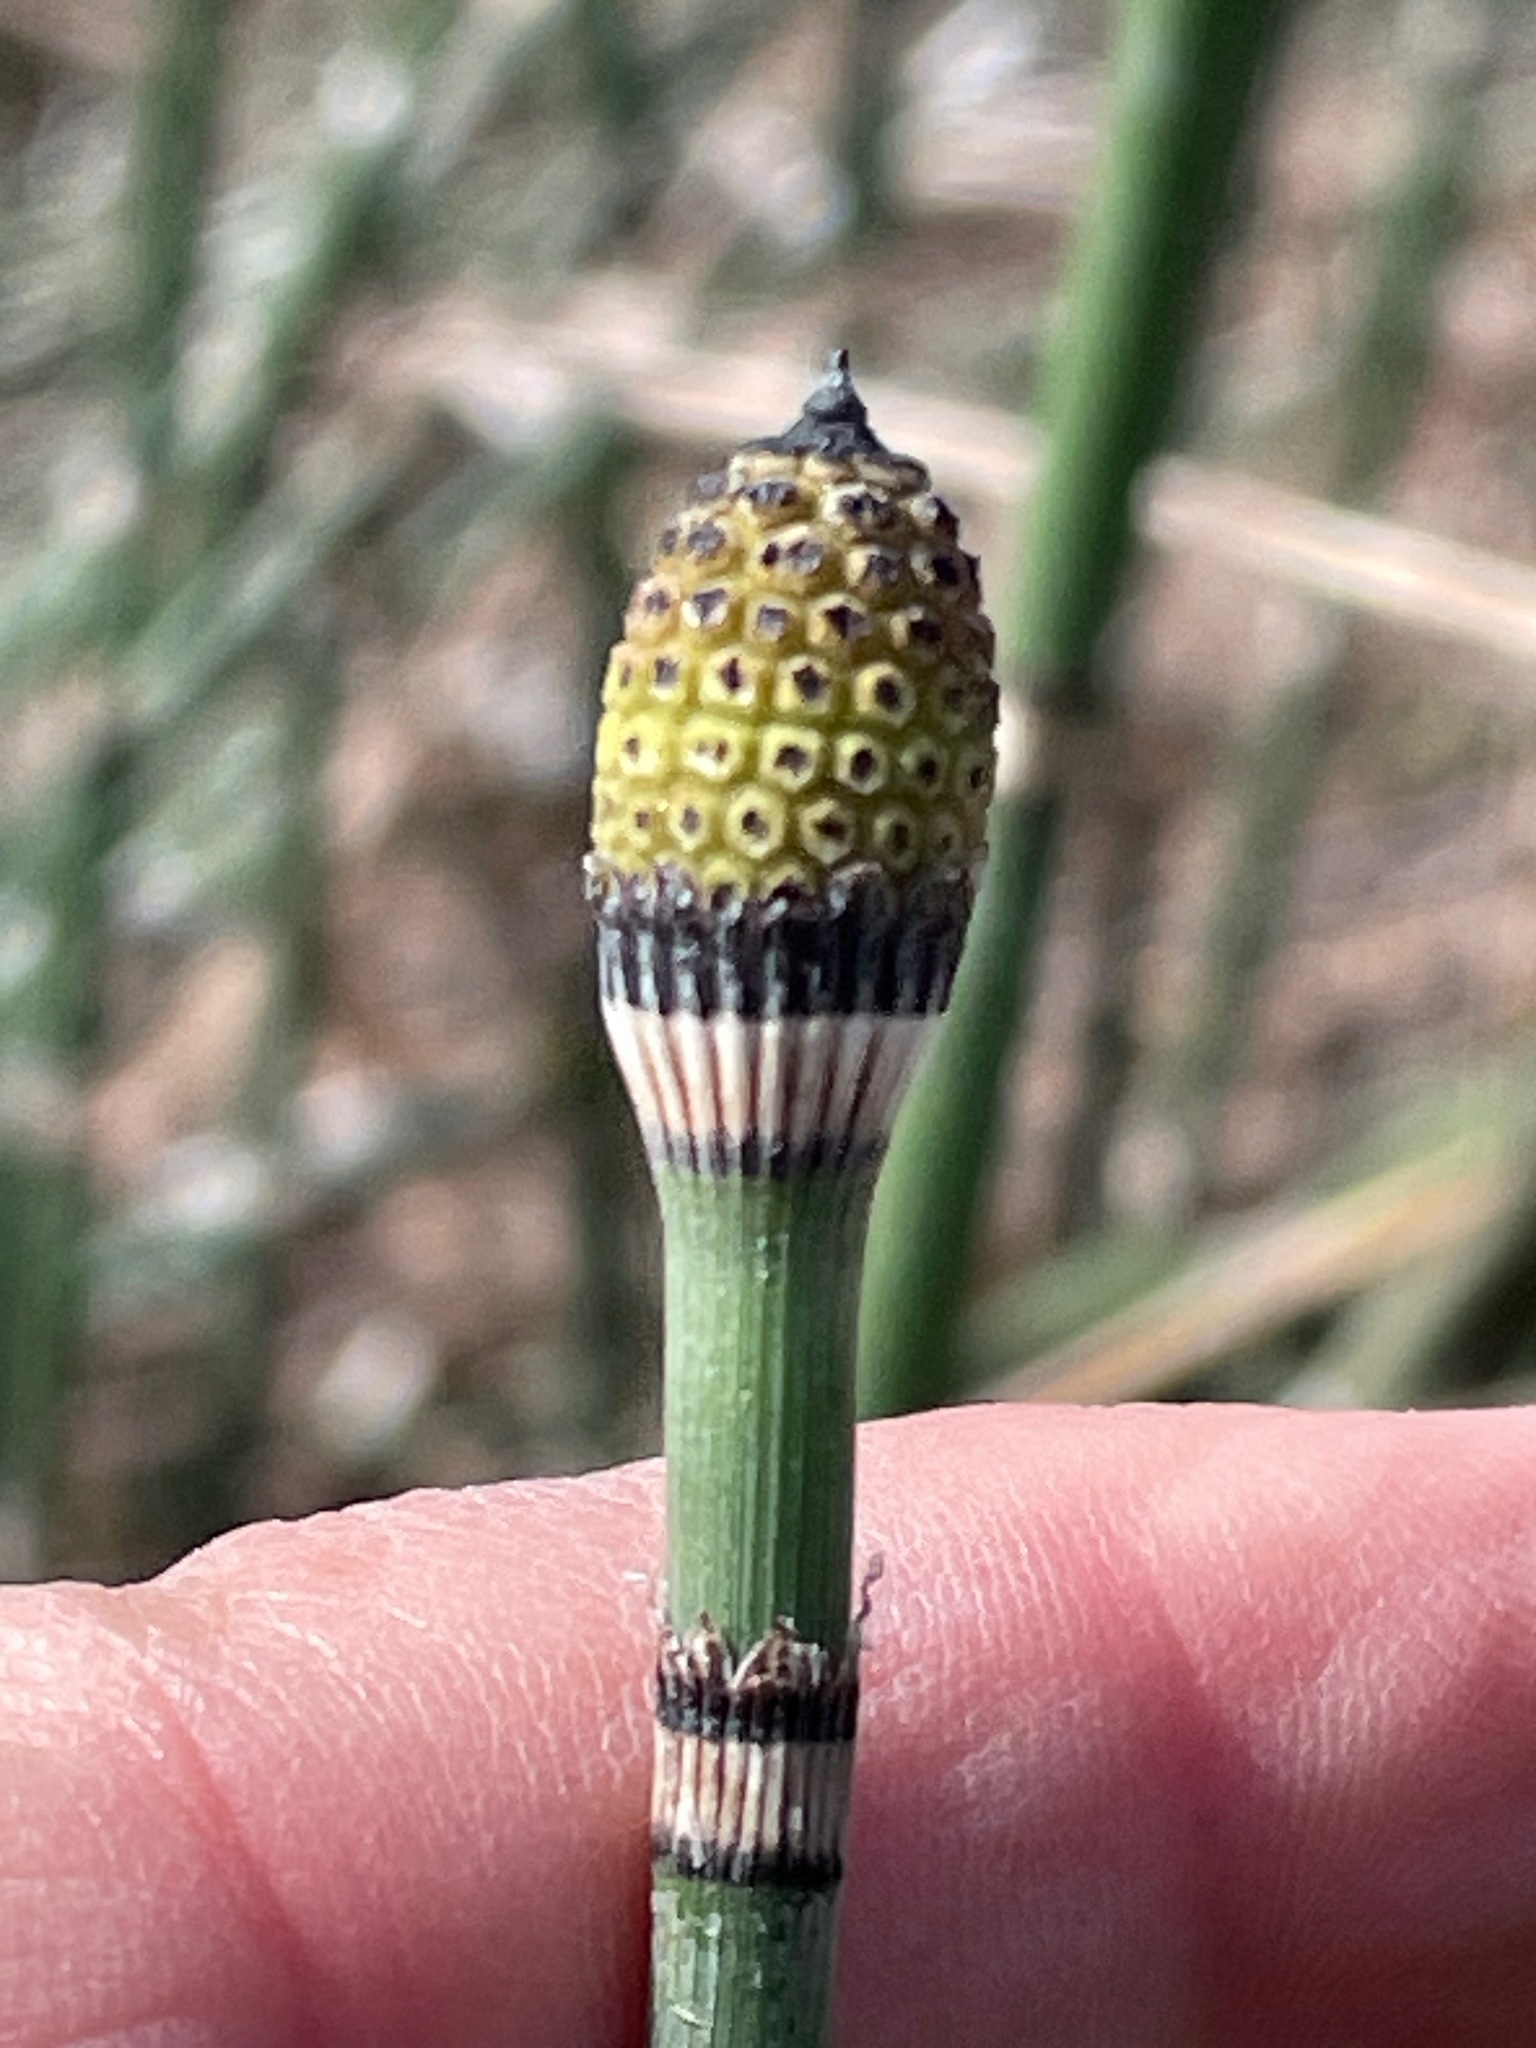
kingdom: Plantae
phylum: Tracheophyta
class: Polypodiopsida
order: Equisetales
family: Equisetaceae
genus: Equisetum
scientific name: Equisetum praealtum
